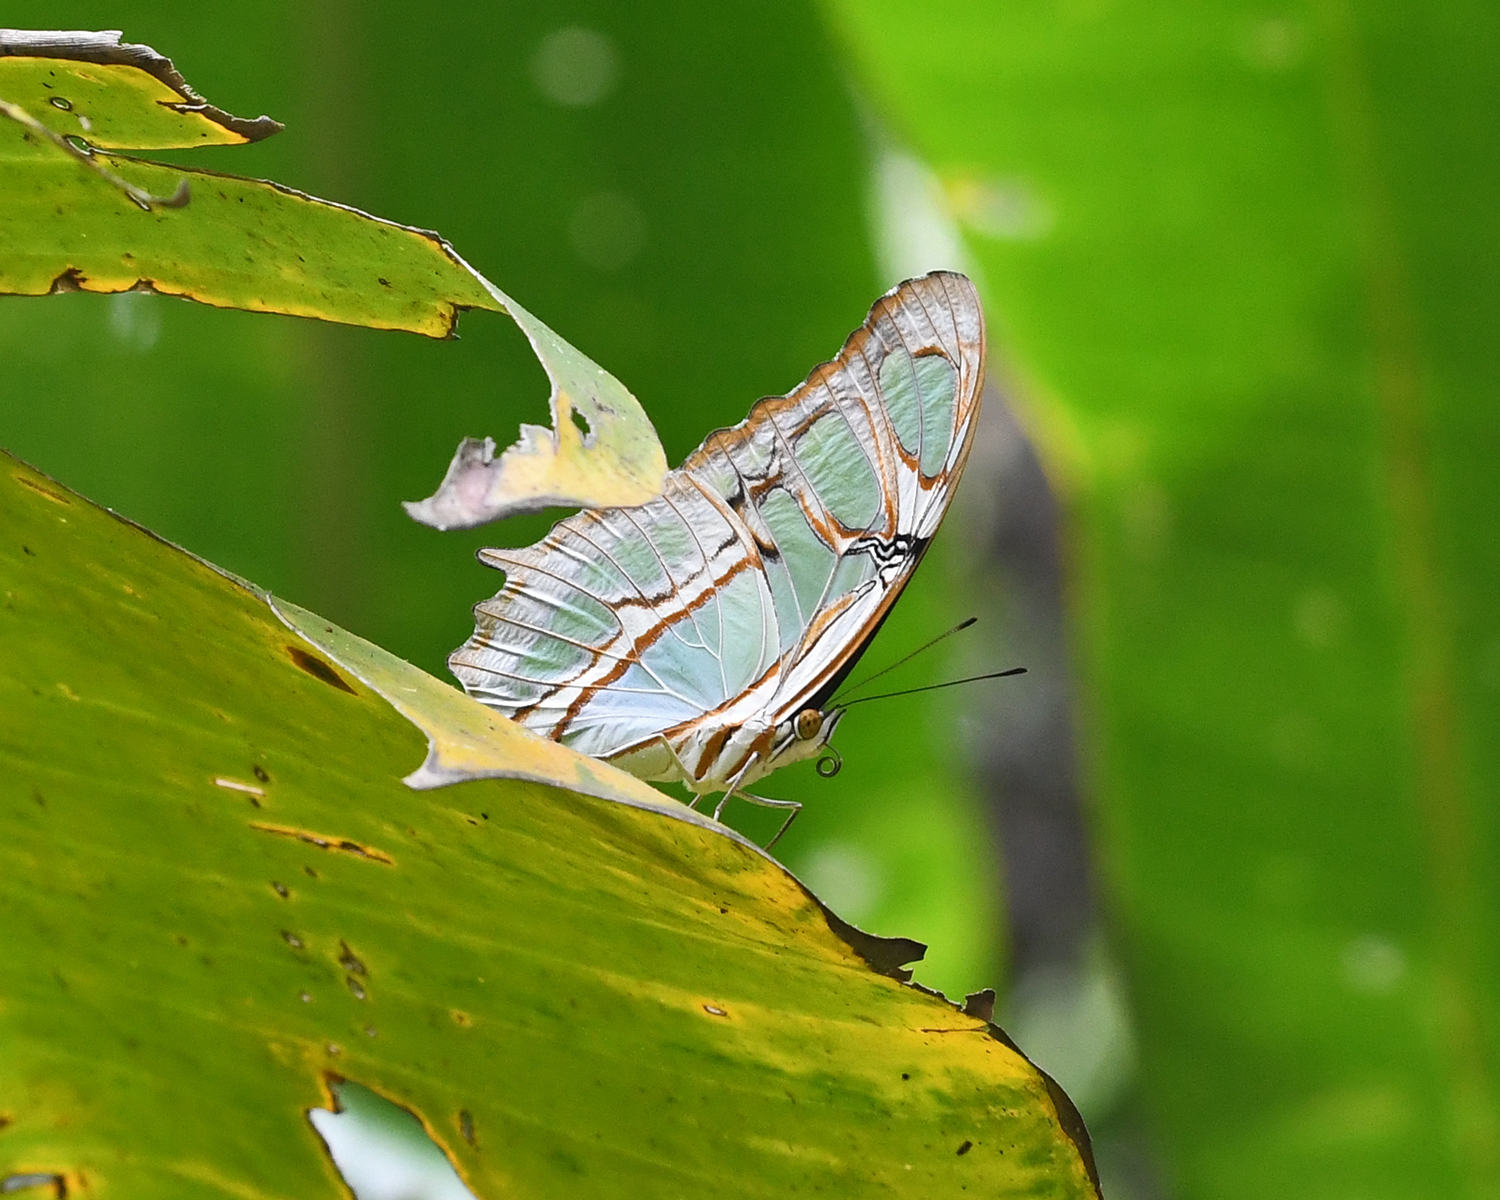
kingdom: Animalia
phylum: Arthropoda
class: Insecta
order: Lepidoptera
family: Nymphalidae
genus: Siproeta
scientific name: Siproeta stelenes
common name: Malachite
